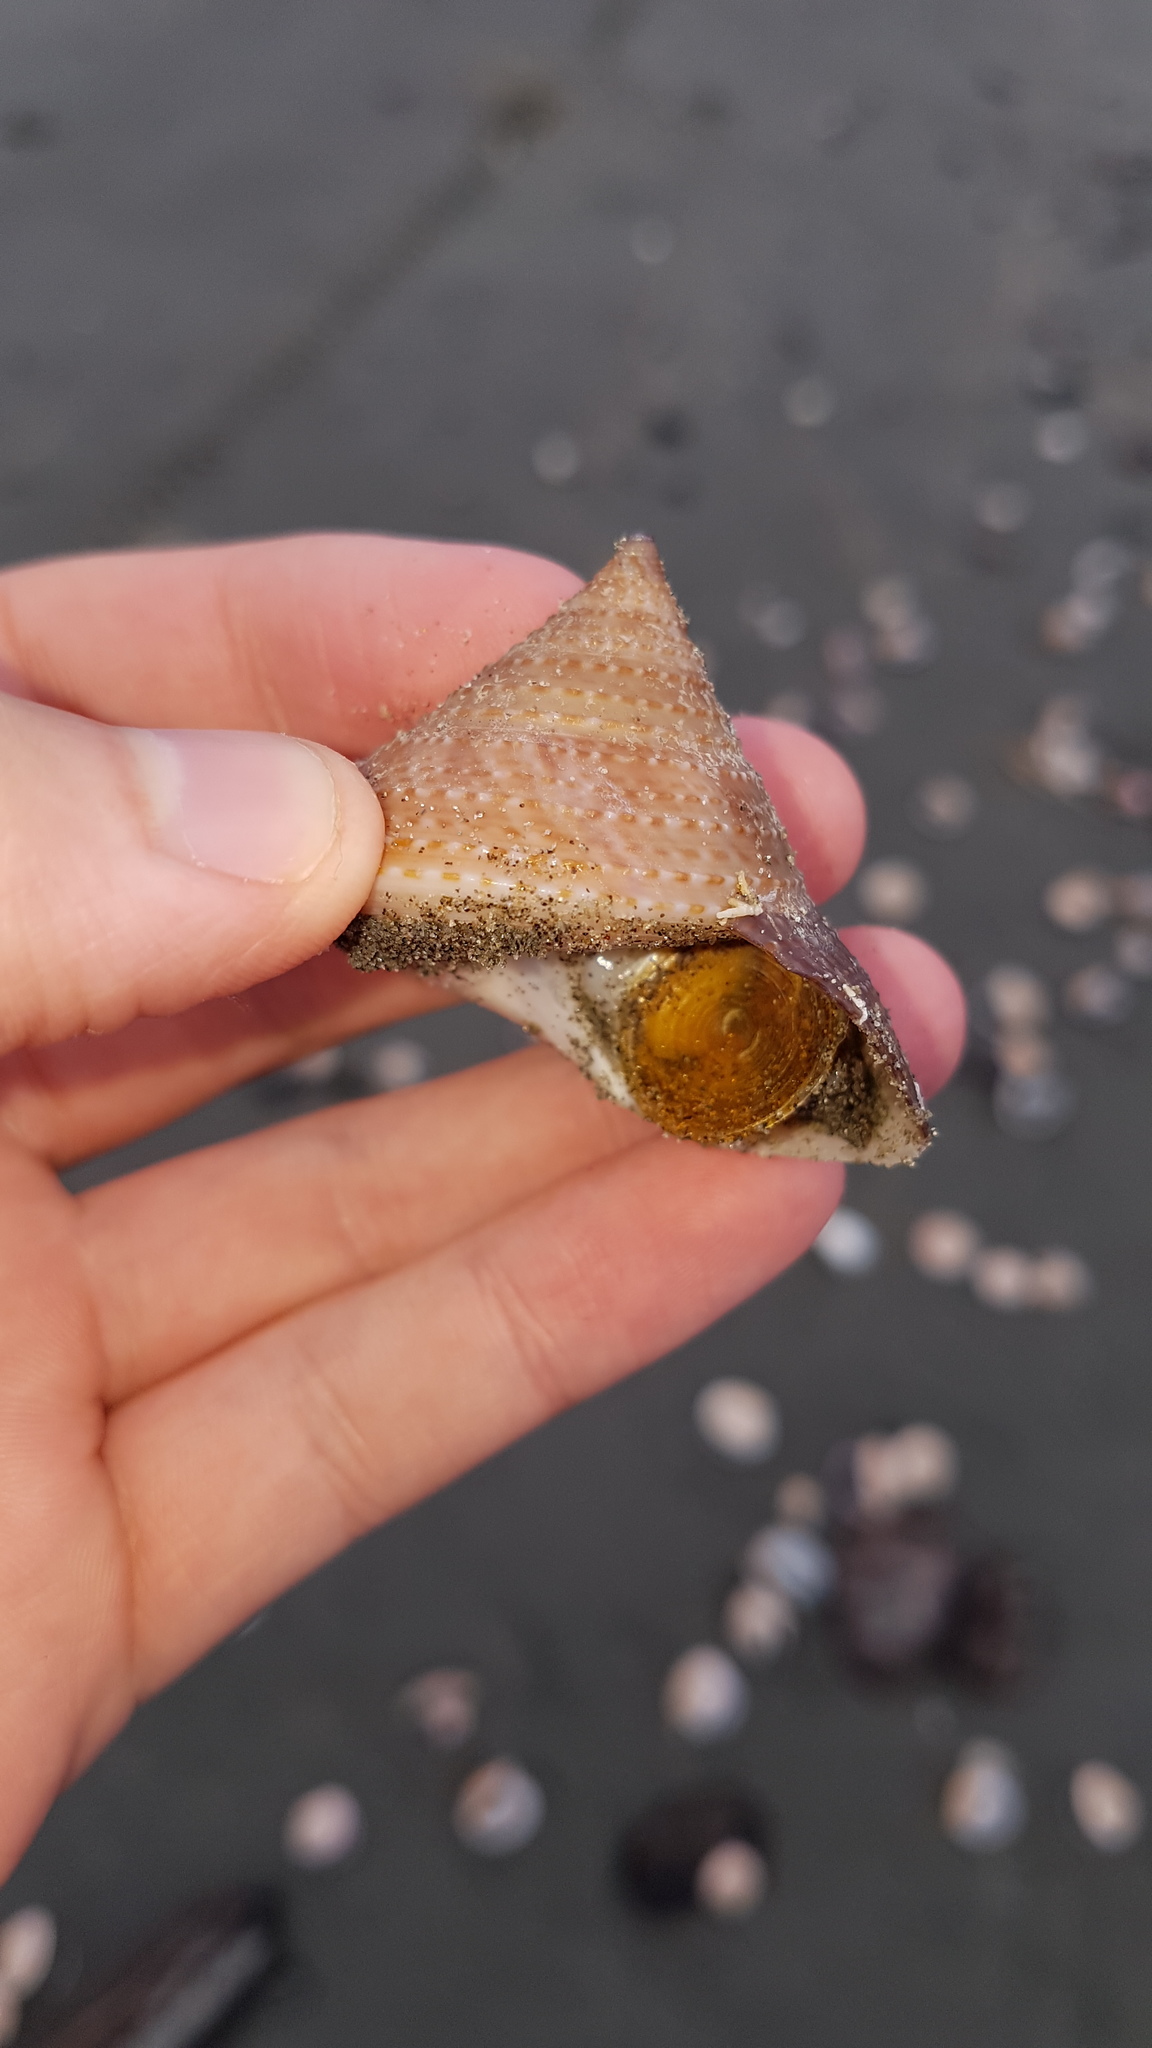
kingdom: Animalia
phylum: Mollusca
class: Gastropoda
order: Trochida
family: Calliostomatidae
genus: Maurea
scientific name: Maurea selecta
